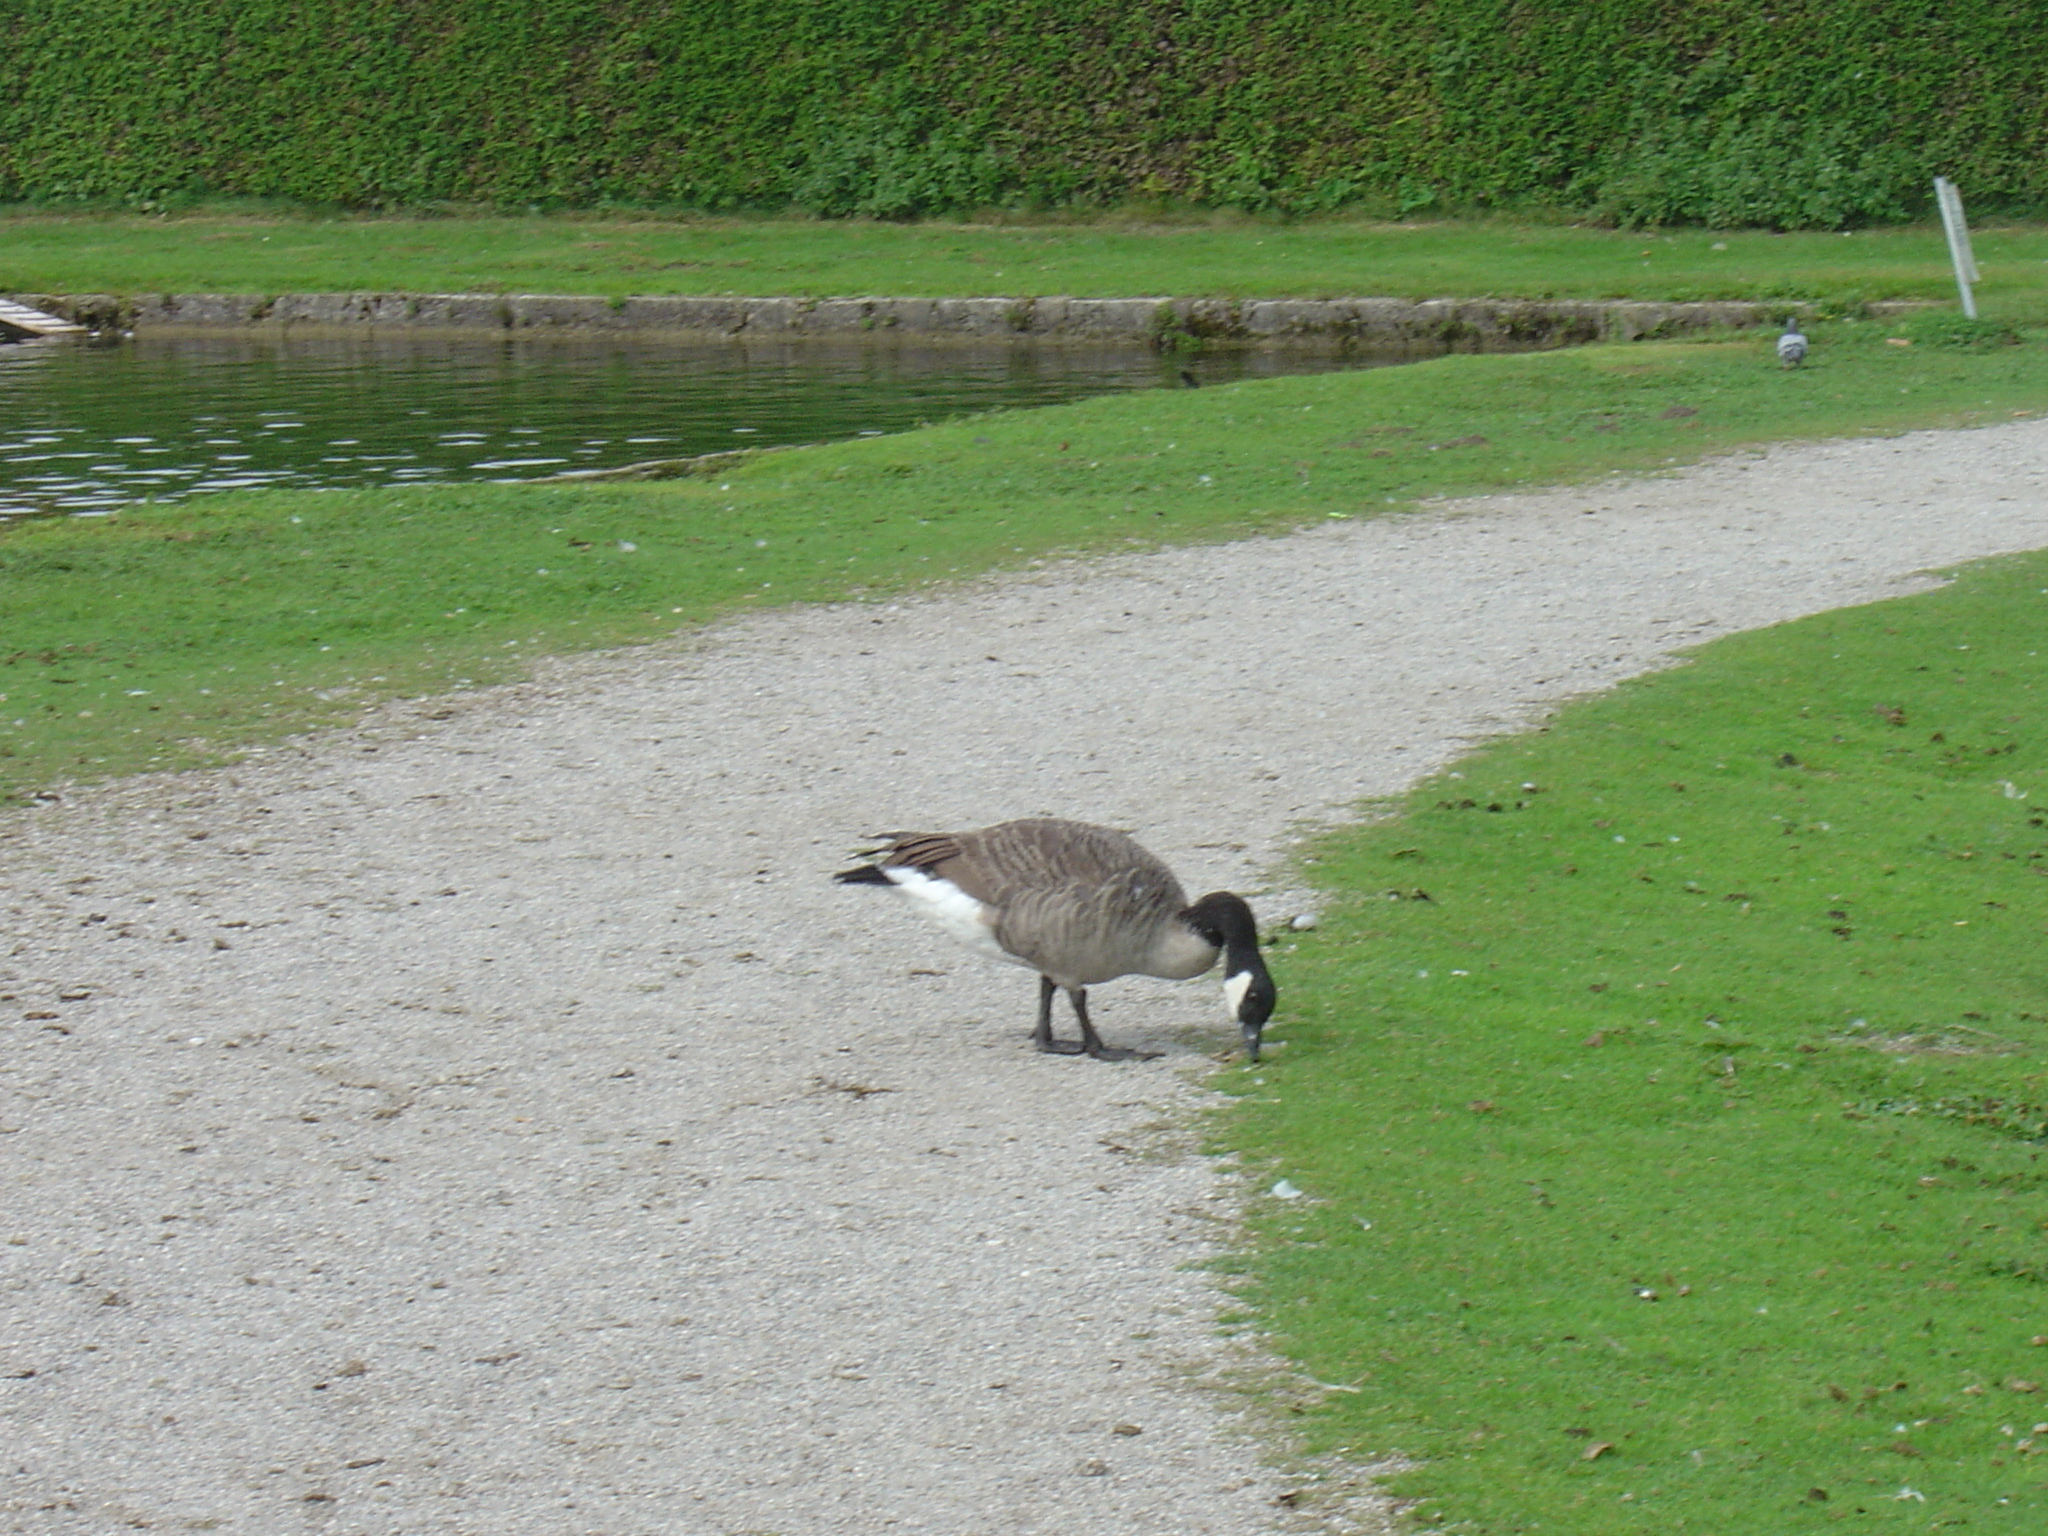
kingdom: Animalia
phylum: Chordata
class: Aves
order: Anseriformes
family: Anatidae
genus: Branta
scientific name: Branta canadensis
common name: Canada goose
